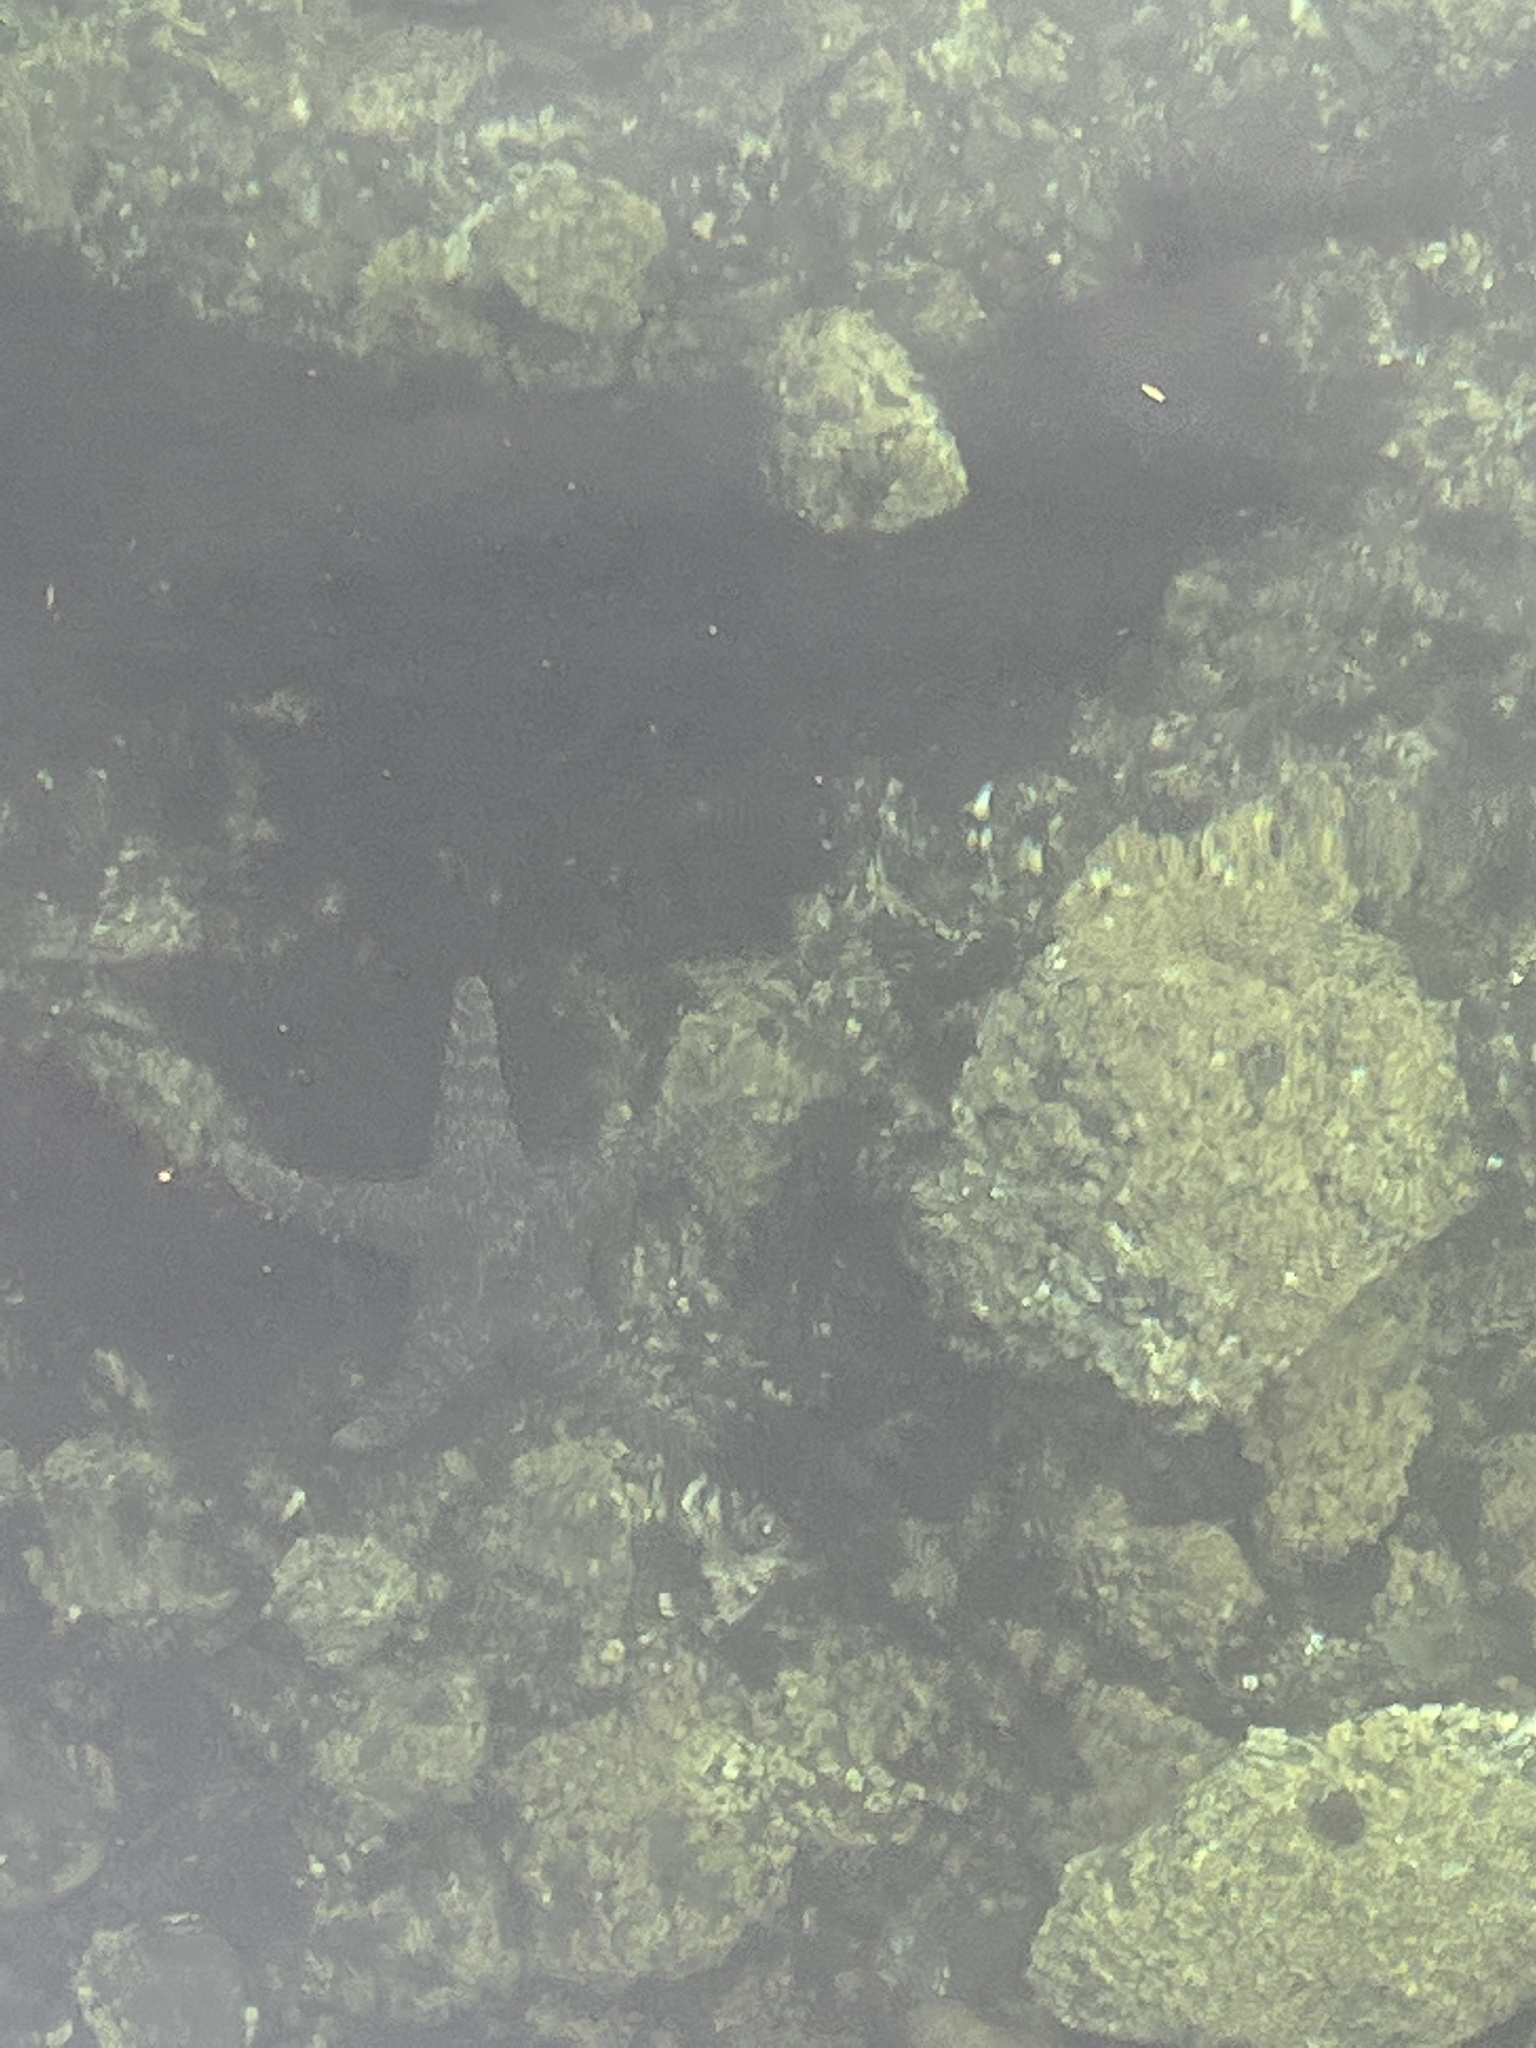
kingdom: Animalia
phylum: Echinodermata
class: Asteroidea
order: Forcipulatida
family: Asteriidae
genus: Pisaster
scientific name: Pisaster ochraceus
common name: Ochre stars
